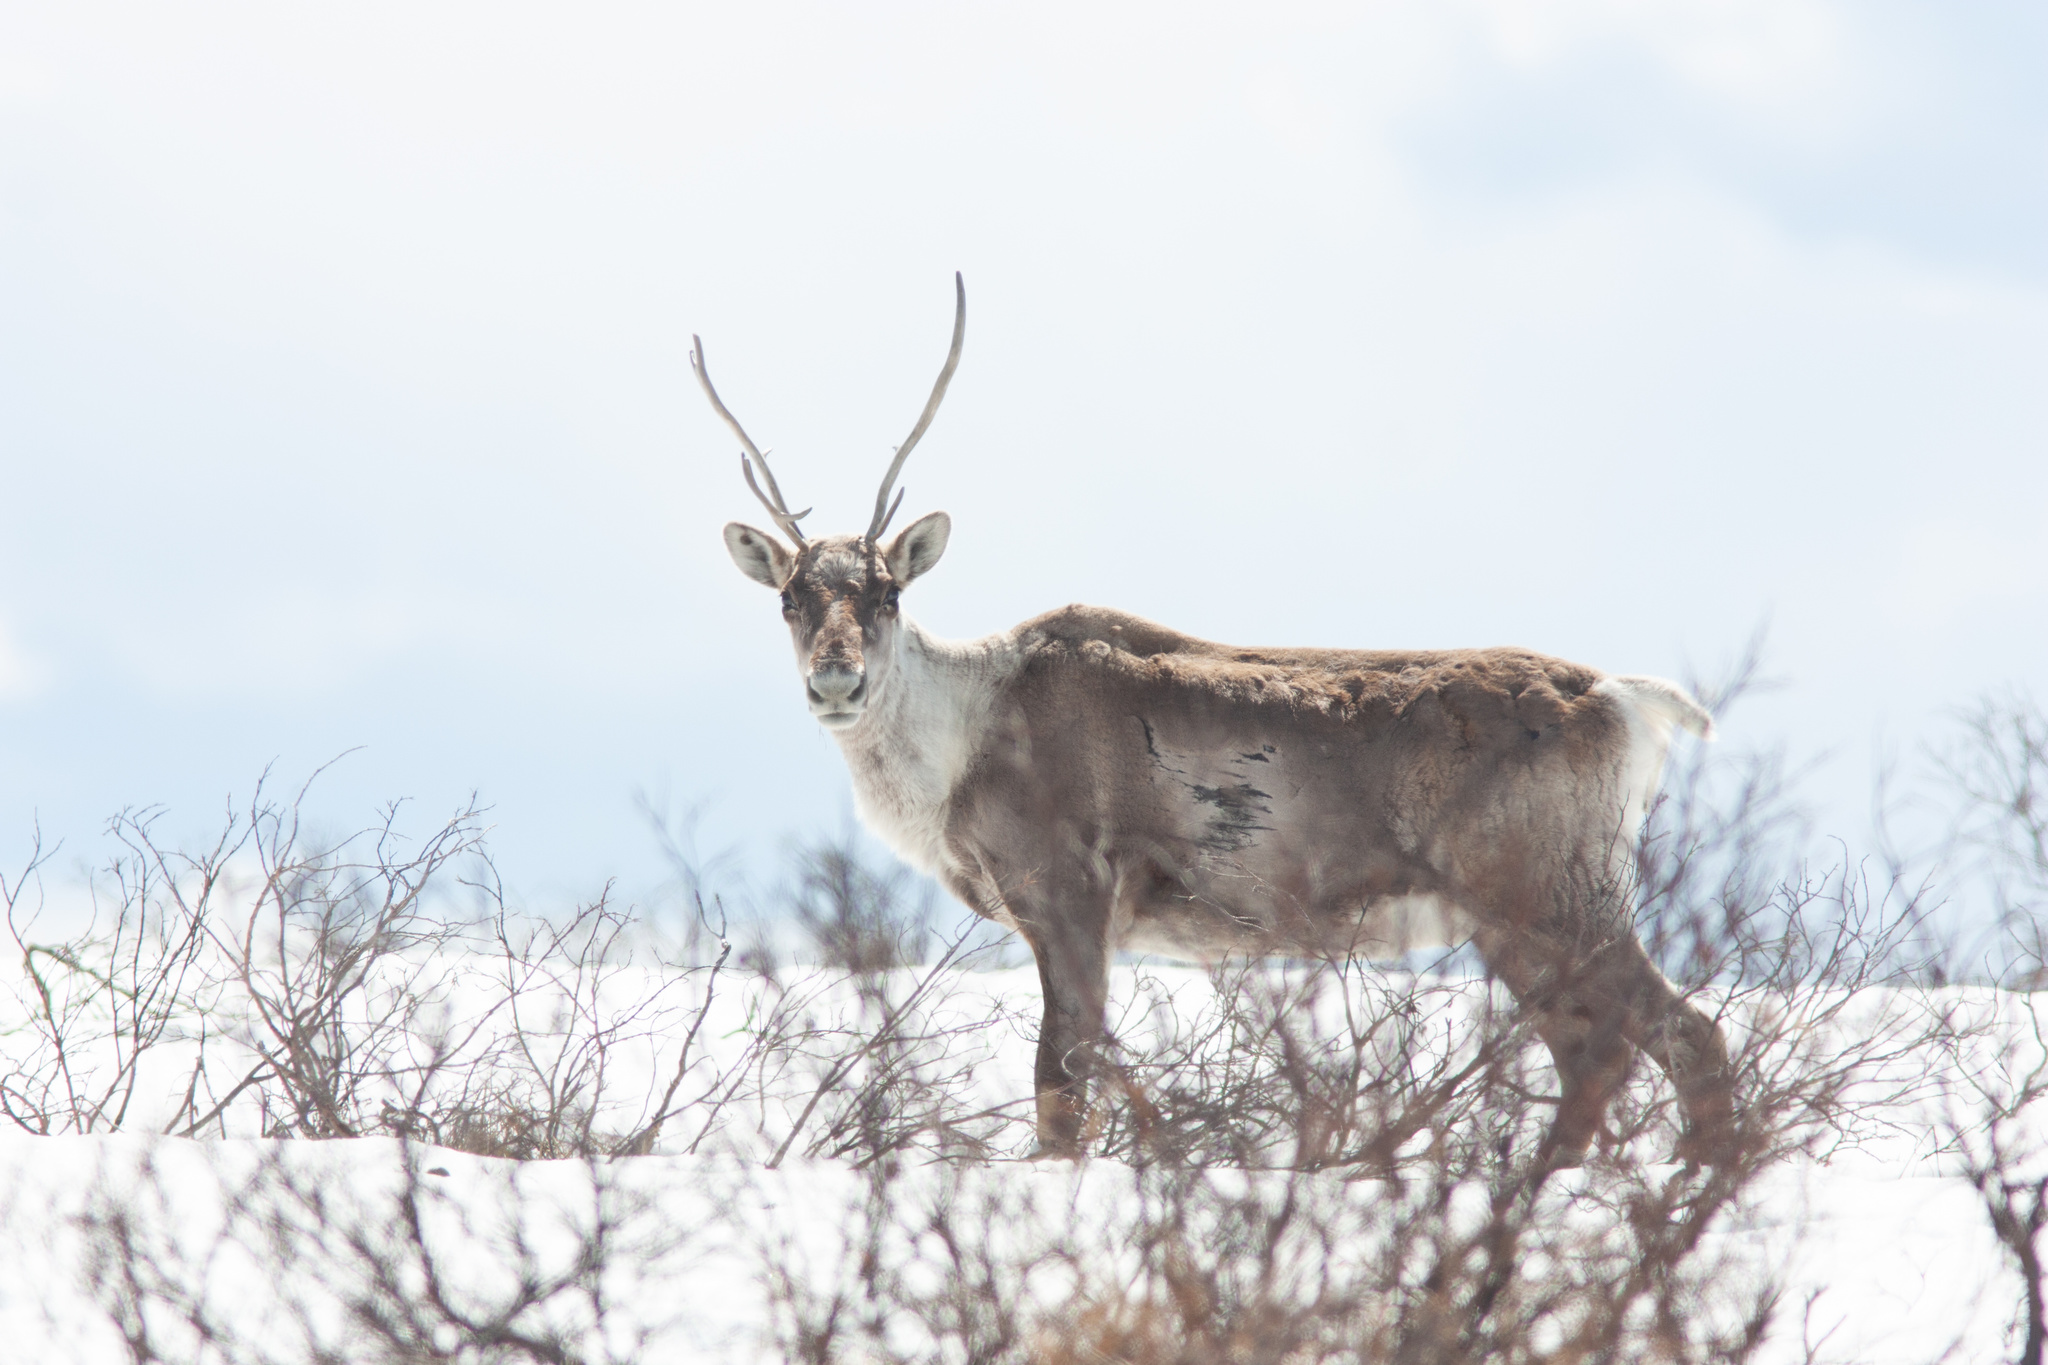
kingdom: Animalia
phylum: Chordata
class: Mammalia
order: Artiodactyla
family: Cervidae
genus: Rangifer
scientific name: Rangifer tarandus
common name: Reindeer
